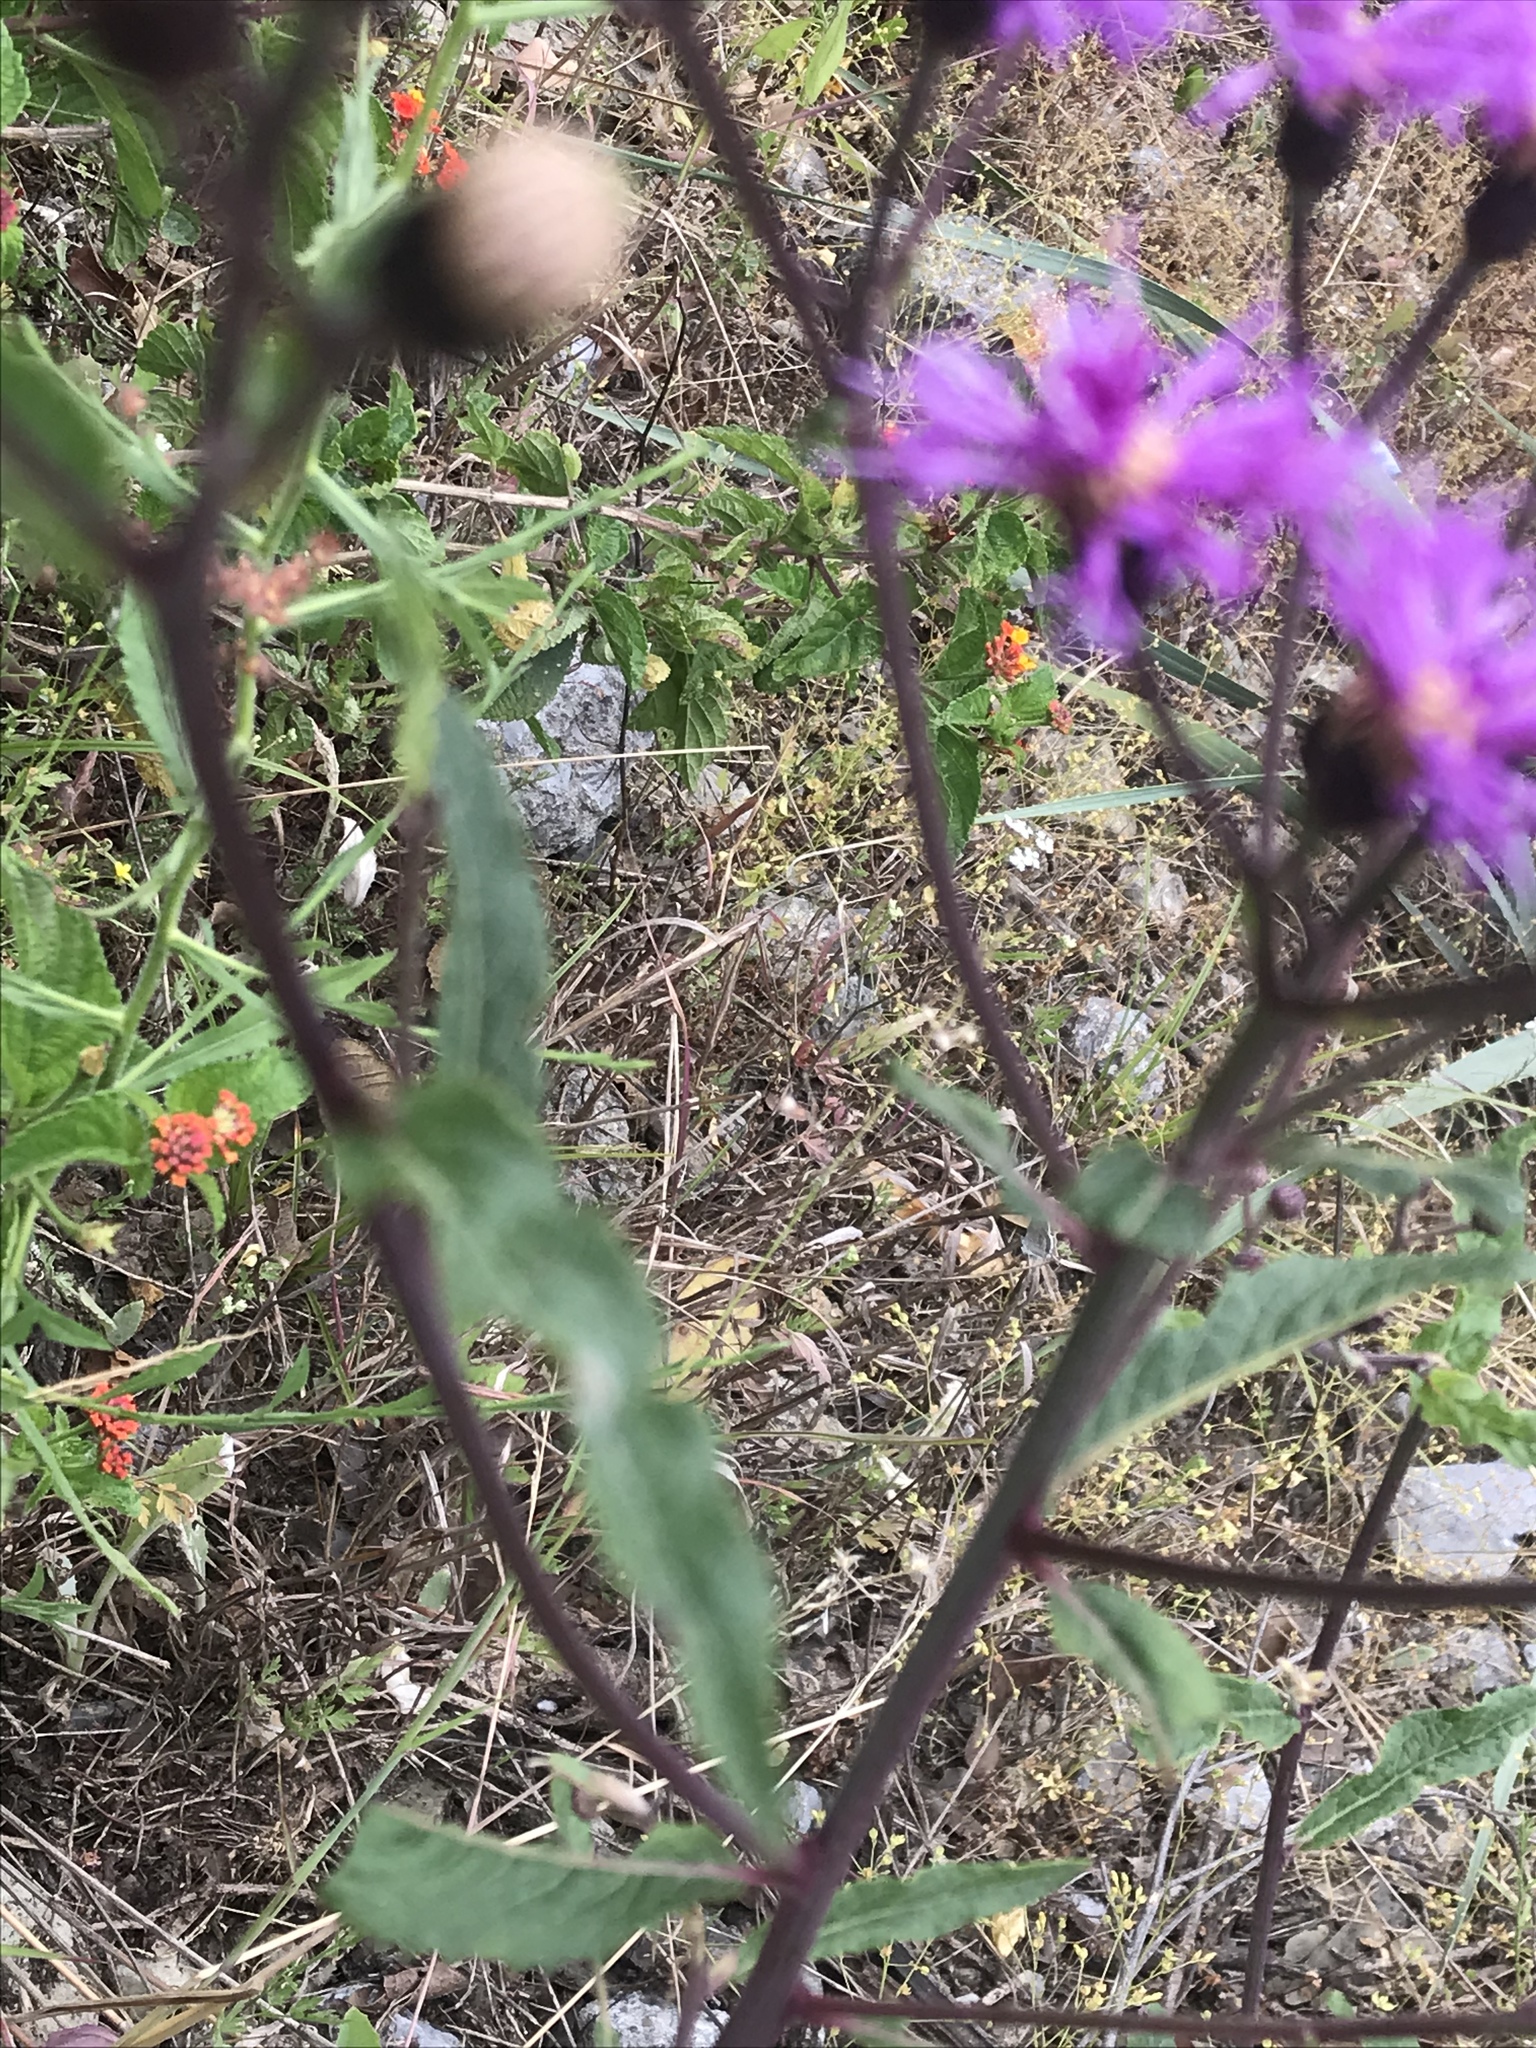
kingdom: Plantae
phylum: Tracheophyta
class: Magnoliopsida
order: Asterales
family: Asteraceae
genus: Vernonia
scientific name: Vernonia greggii
